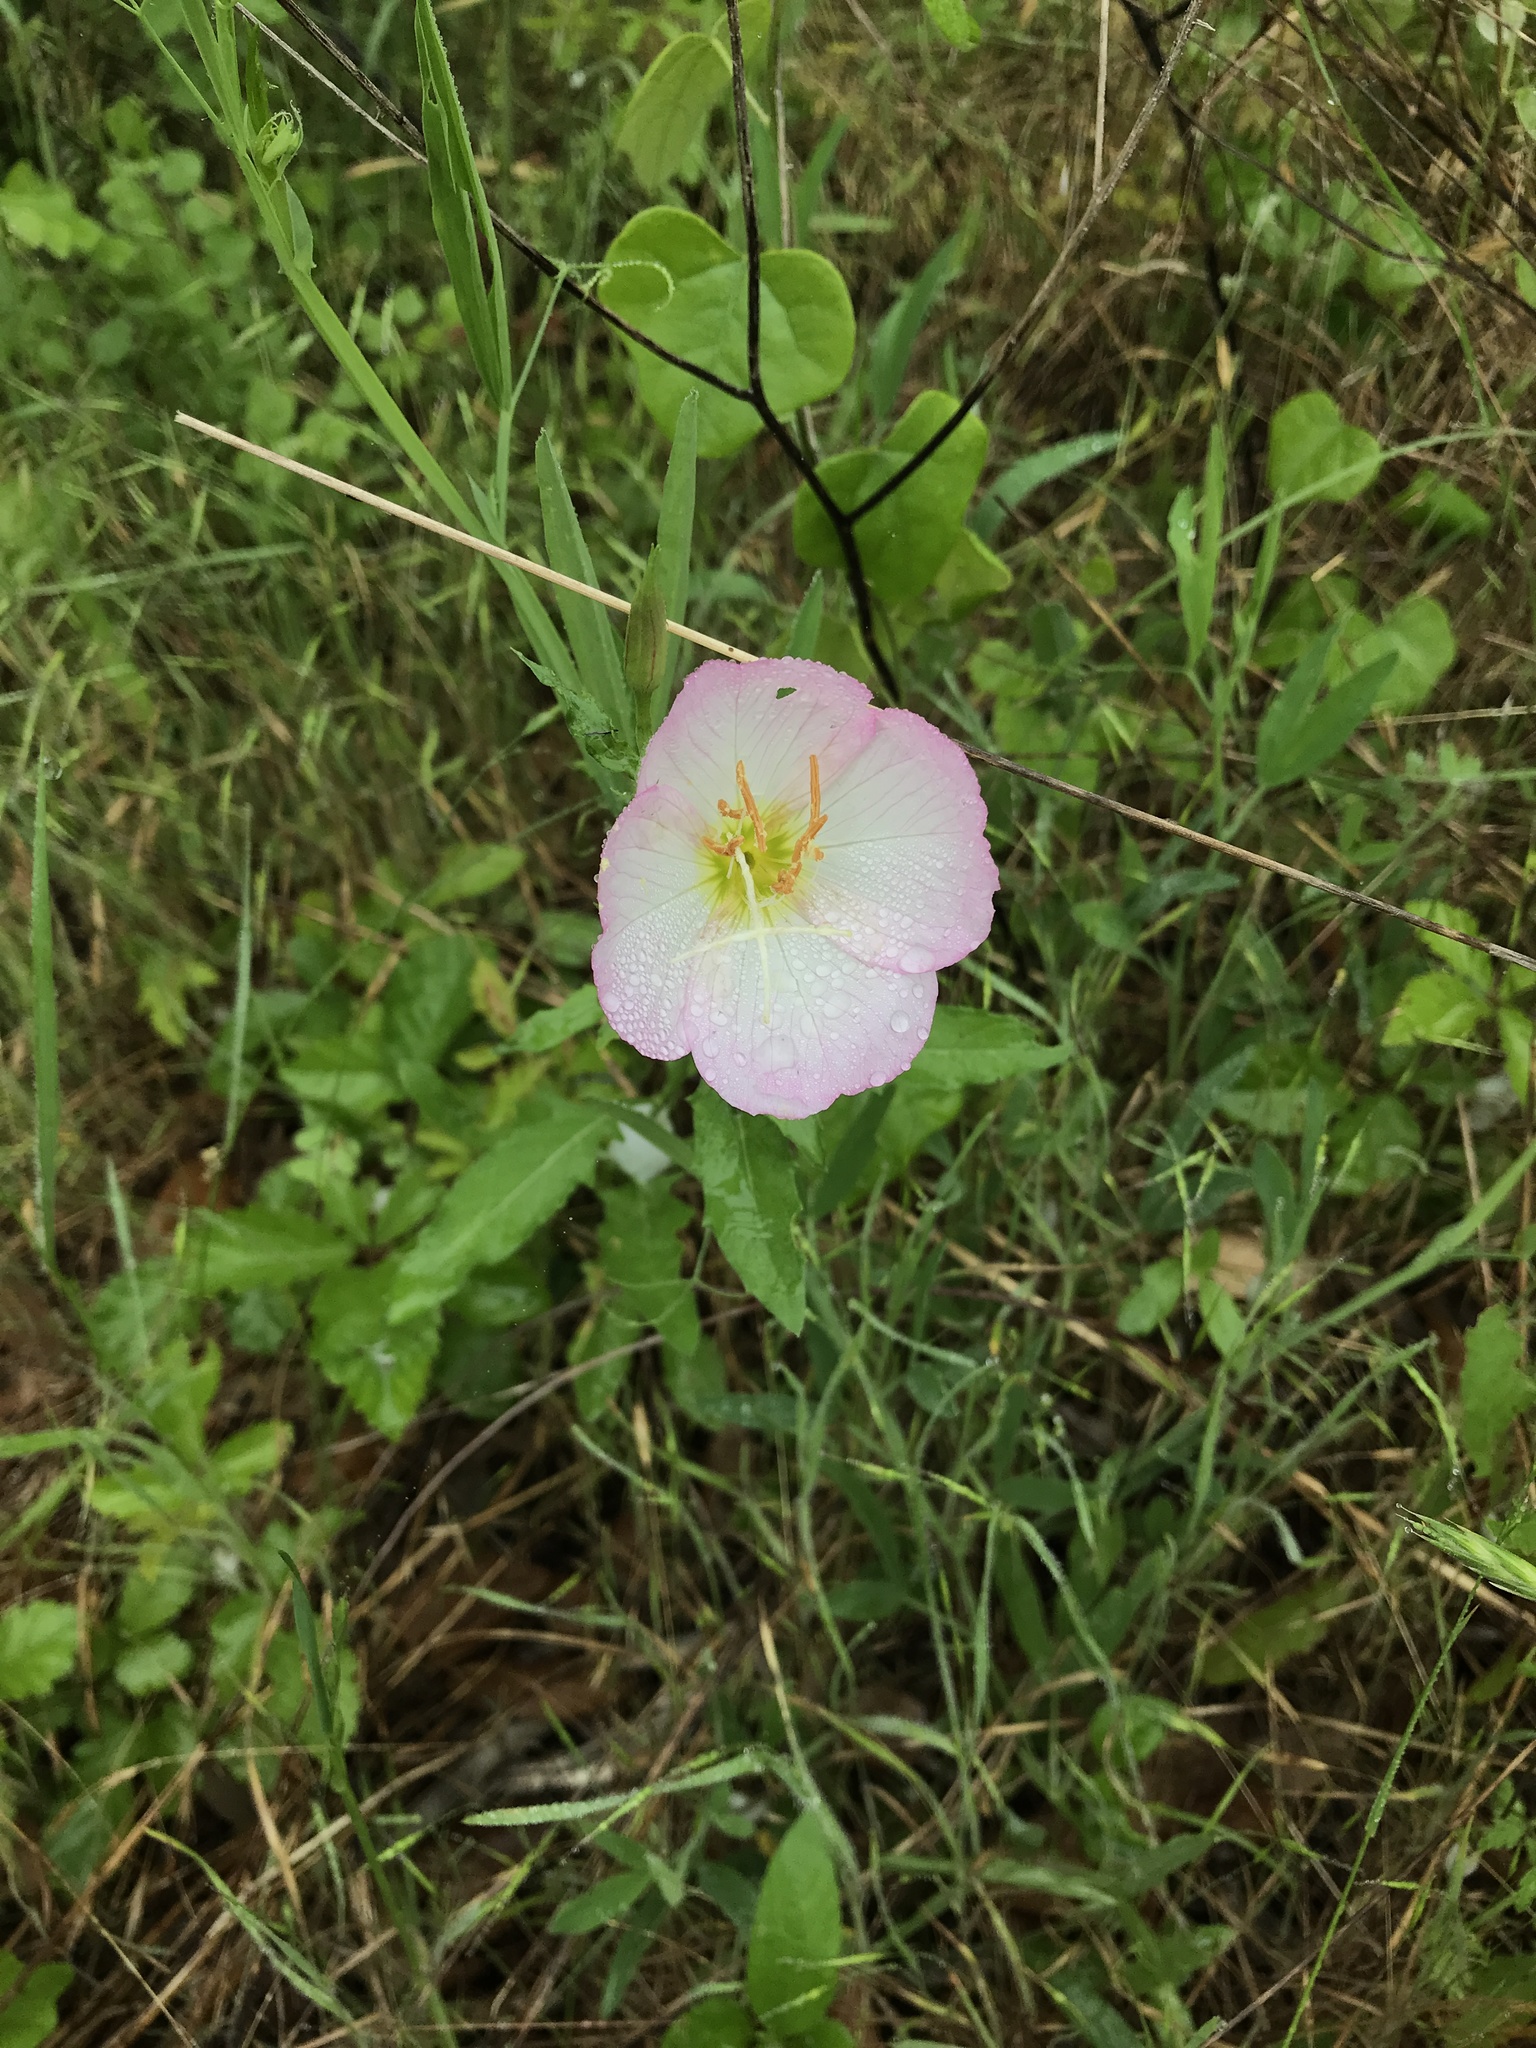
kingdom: Plantae
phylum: Tracheophyta
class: Magnoliopsida
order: Myrtales
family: Onagraceae
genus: Oenothera
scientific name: Oenothera speciosa
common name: White evening-primrose
